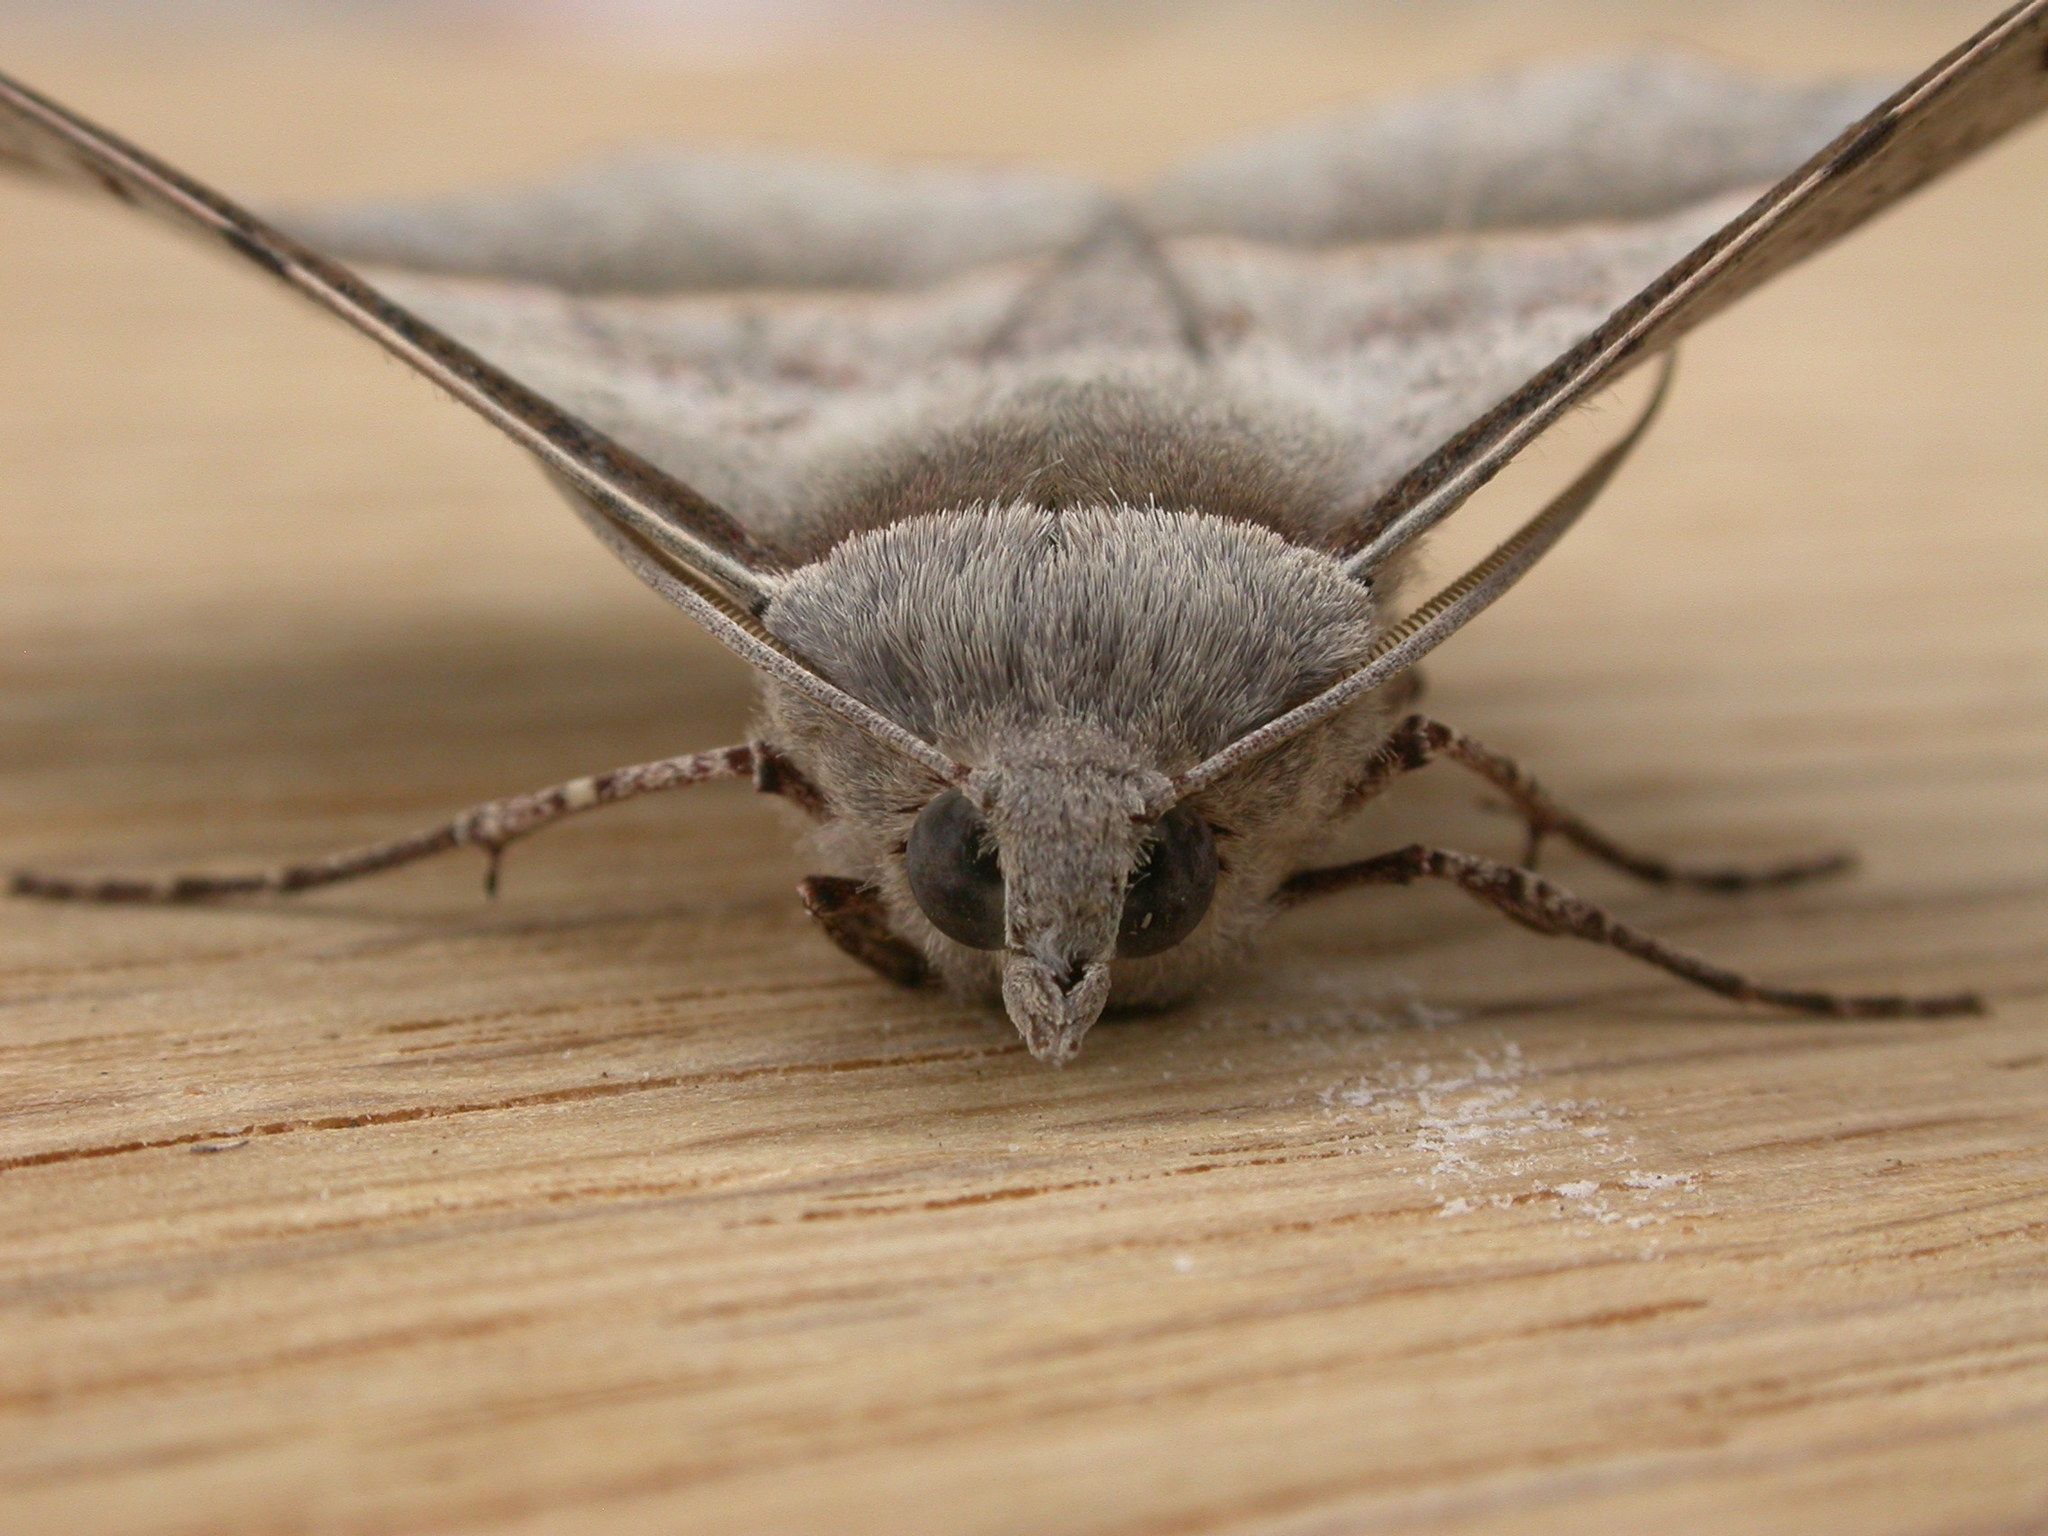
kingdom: Animalia
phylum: Arthropoda
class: Insecta
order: Lepidoptera
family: Geometridae
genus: Oenochroma
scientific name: Oenochroma vetustaria
